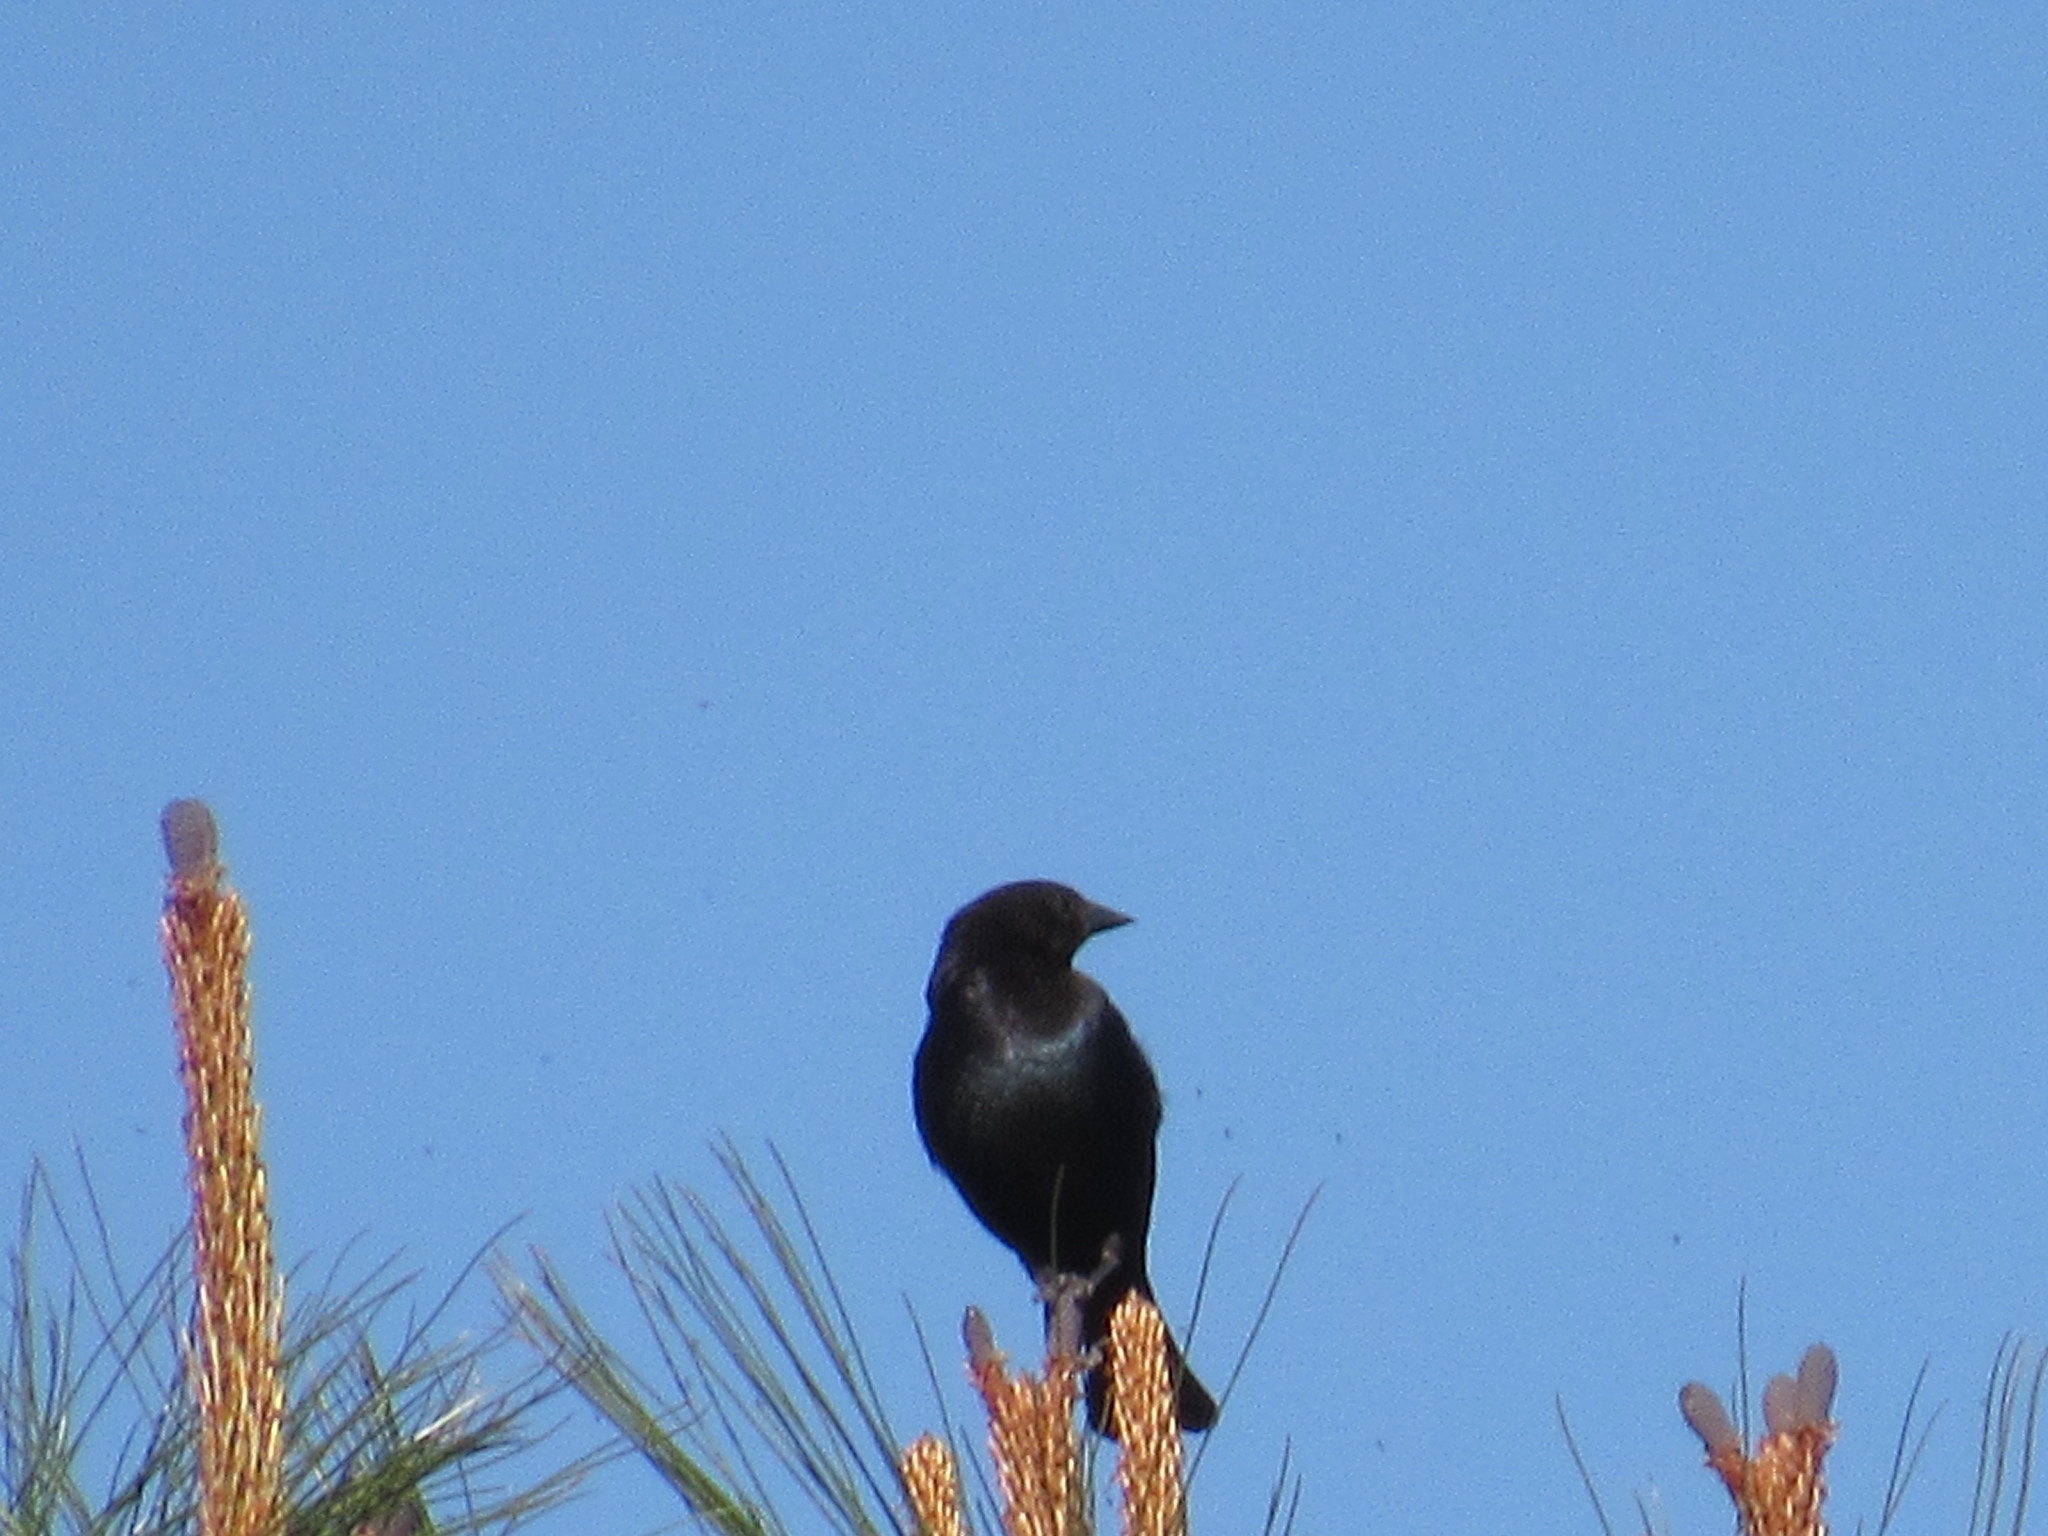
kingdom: Animalia
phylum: Chordata
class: Aves
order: Passeriformes
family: Icteridae
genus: Molothrus
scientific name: Molothrus ater
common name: Brown-headed cowbird
